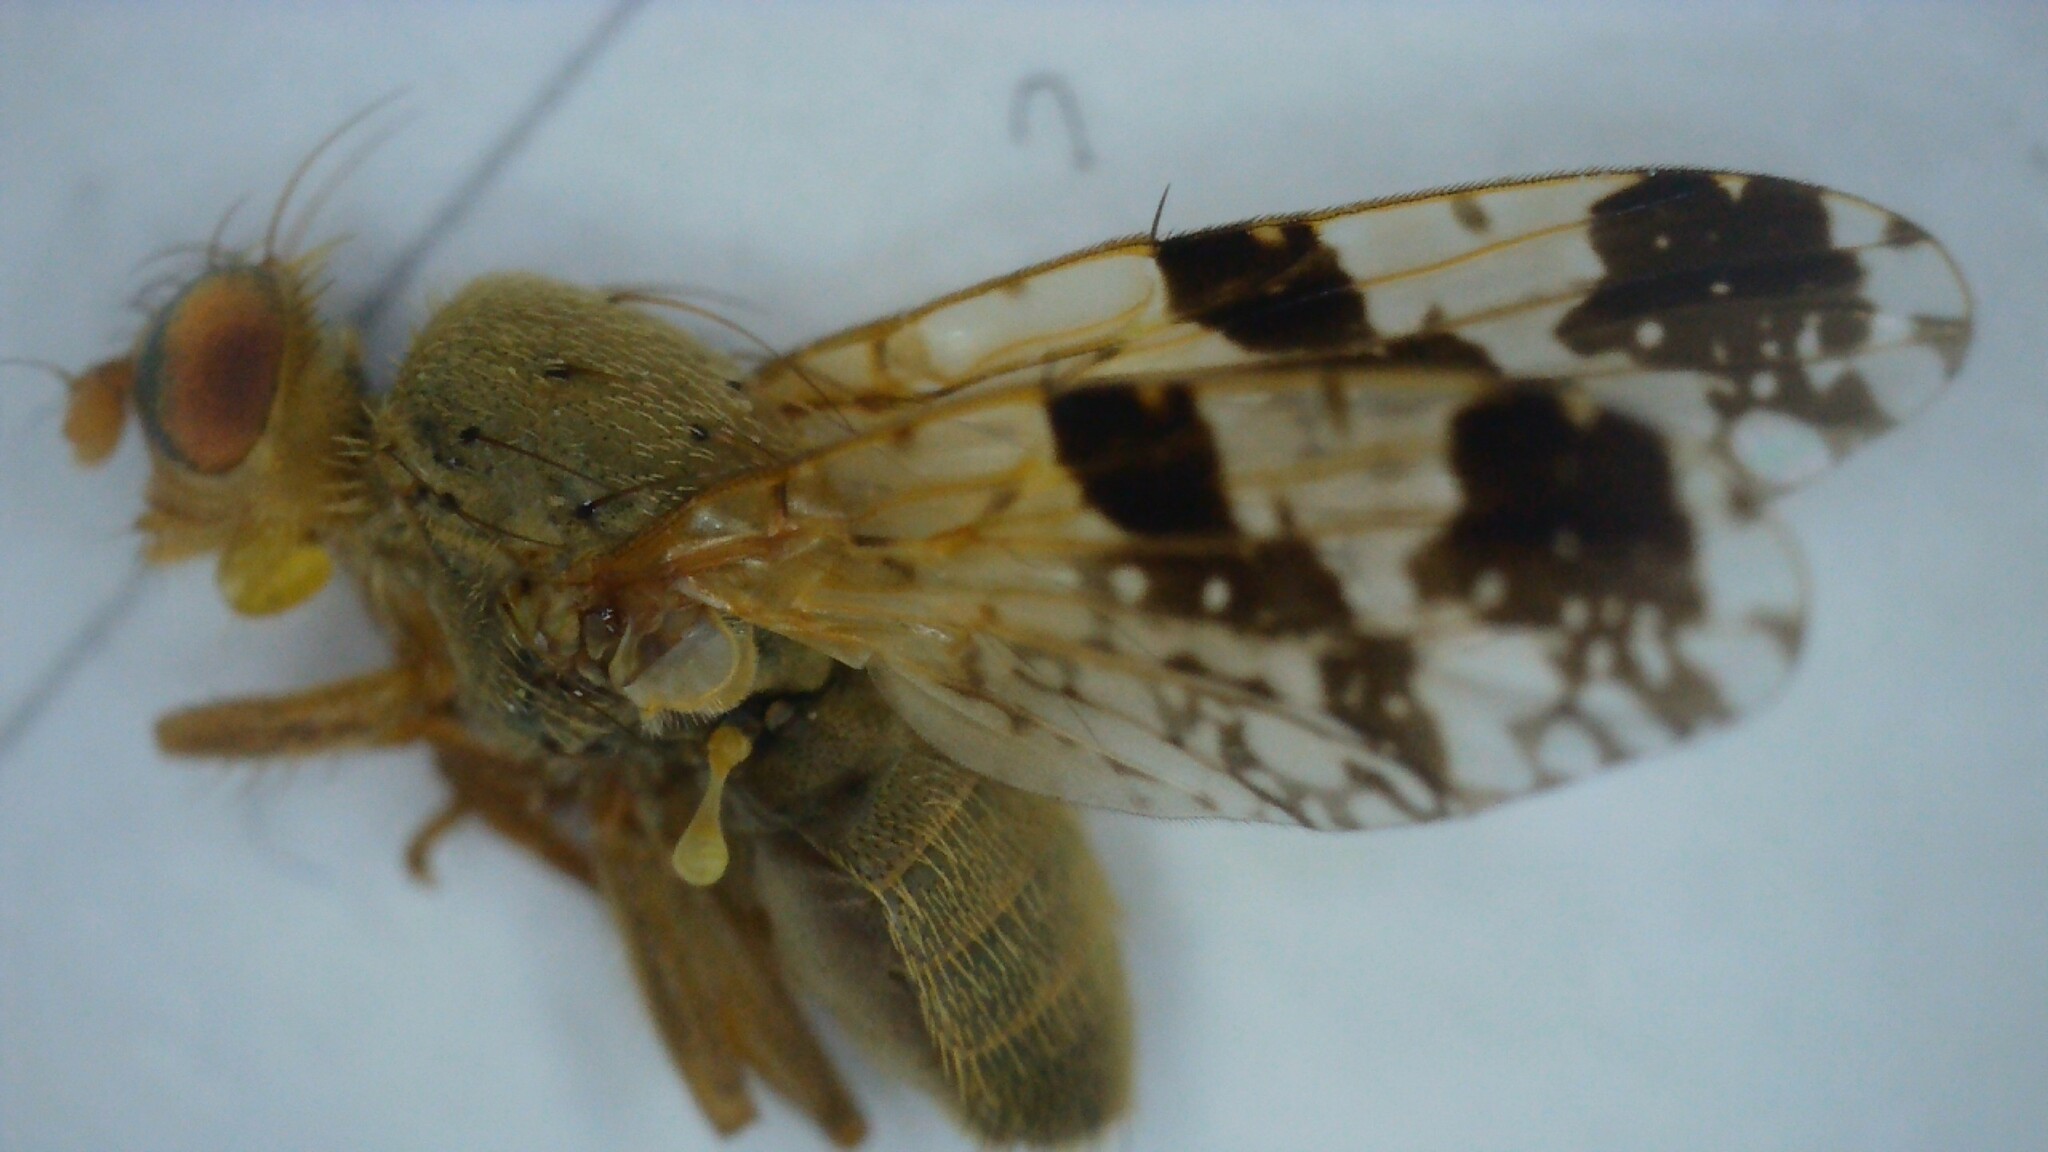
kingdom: Animalia
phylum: Arthropoda
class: Insecta
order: Diptera
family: Tephritidae
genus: Tephritis
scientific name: Tephritis bardanae
